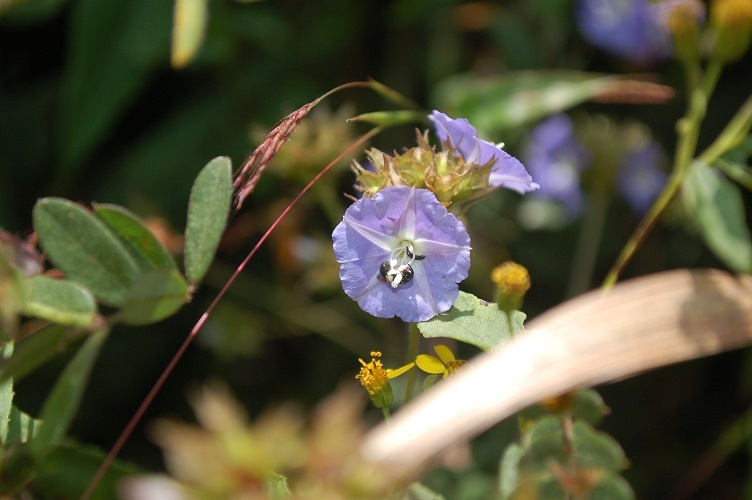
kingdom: Plantae
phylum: Tracheophyta
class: Magnoliopsida
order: Solanales
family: Convolvulaceae
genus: Jacquemontia
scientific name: Jacquemontia pentanthos
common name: Skyblue clustervine
